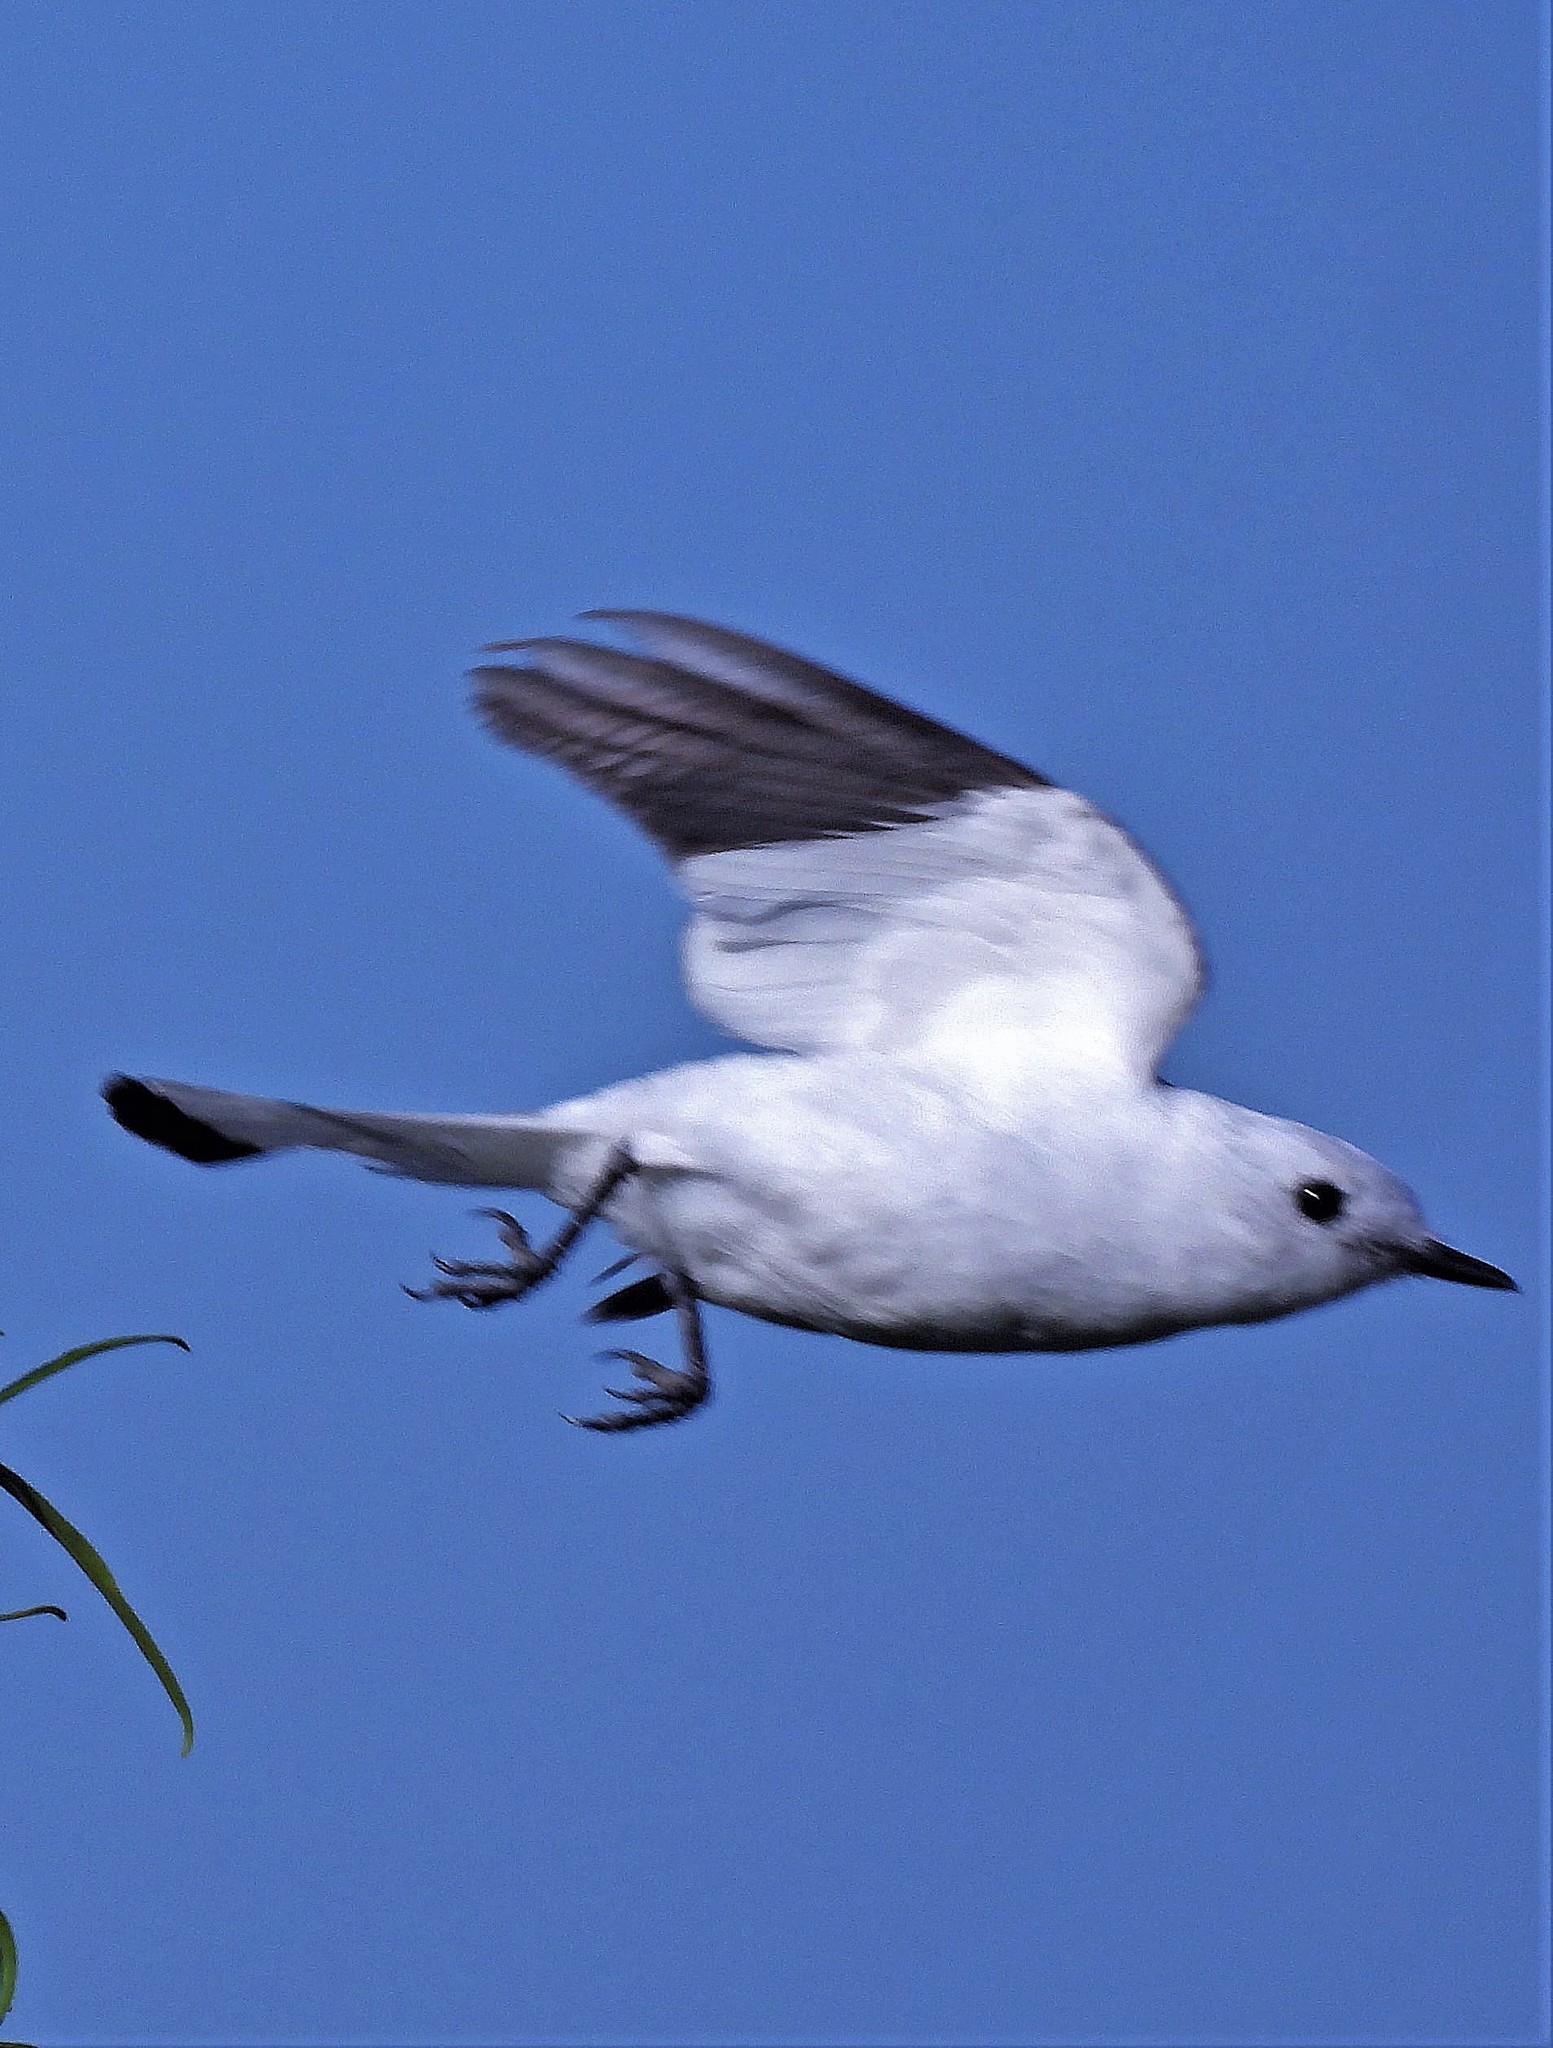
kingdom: Animalia
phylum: Chordata
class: Aves
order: Passeriformes
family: Tyrannidae
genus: Xolmis
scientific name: Xolmis irupero
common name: White monjita
